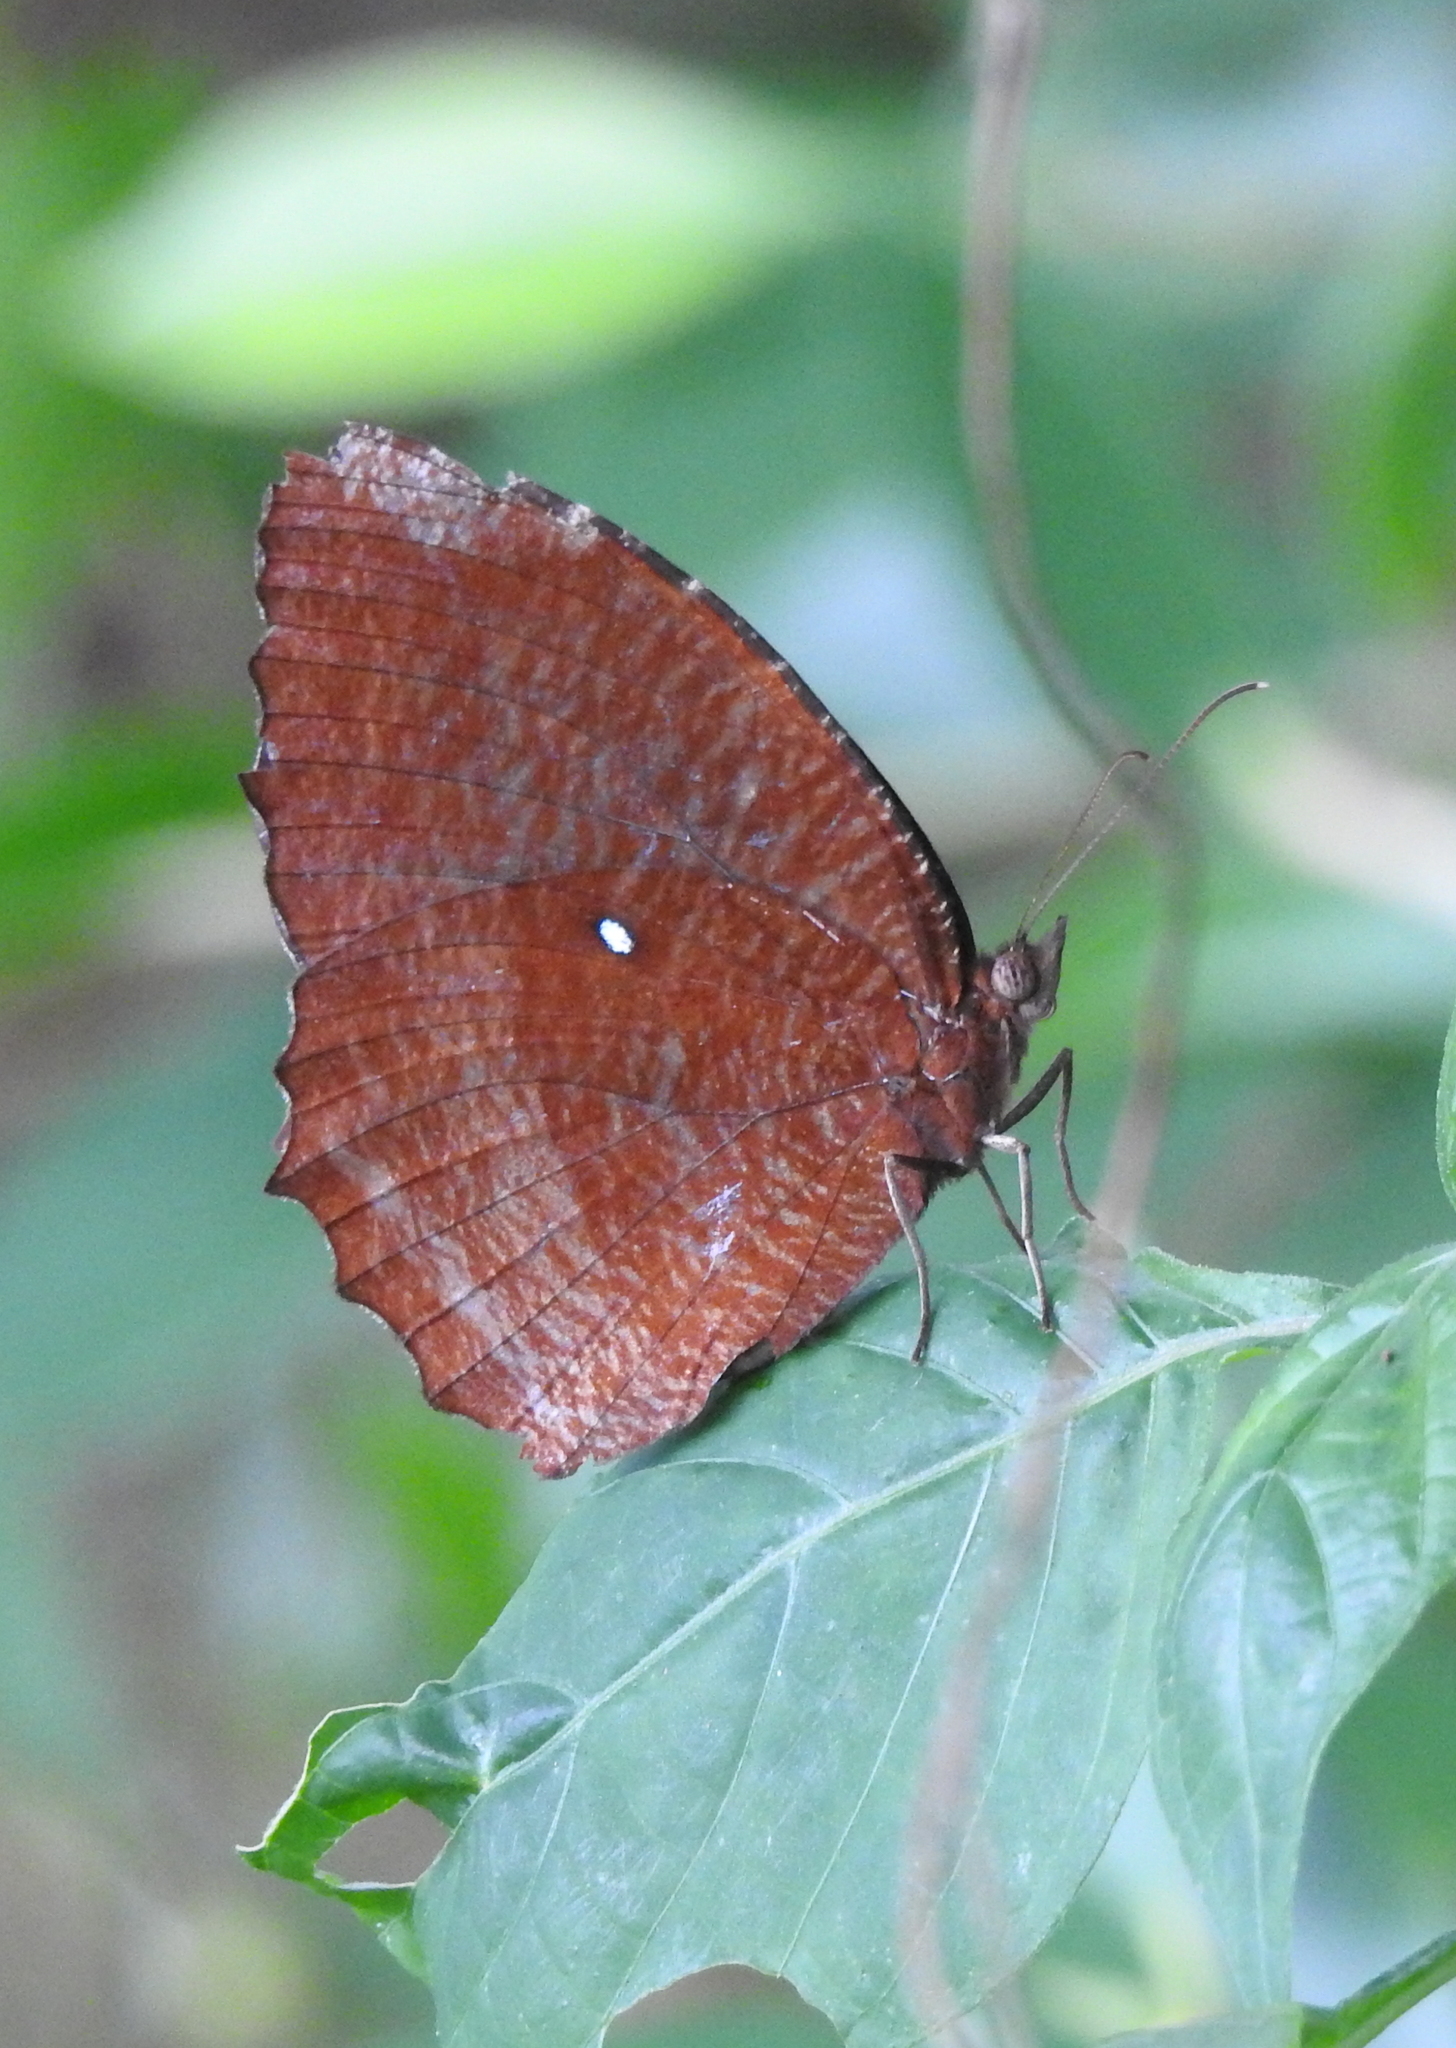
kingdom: Animalia
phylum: Arthropoda
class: Insecta
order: Lepidoptera
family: Nymphalidae
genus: Elymnias
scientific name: Elymnias hypermnestra
